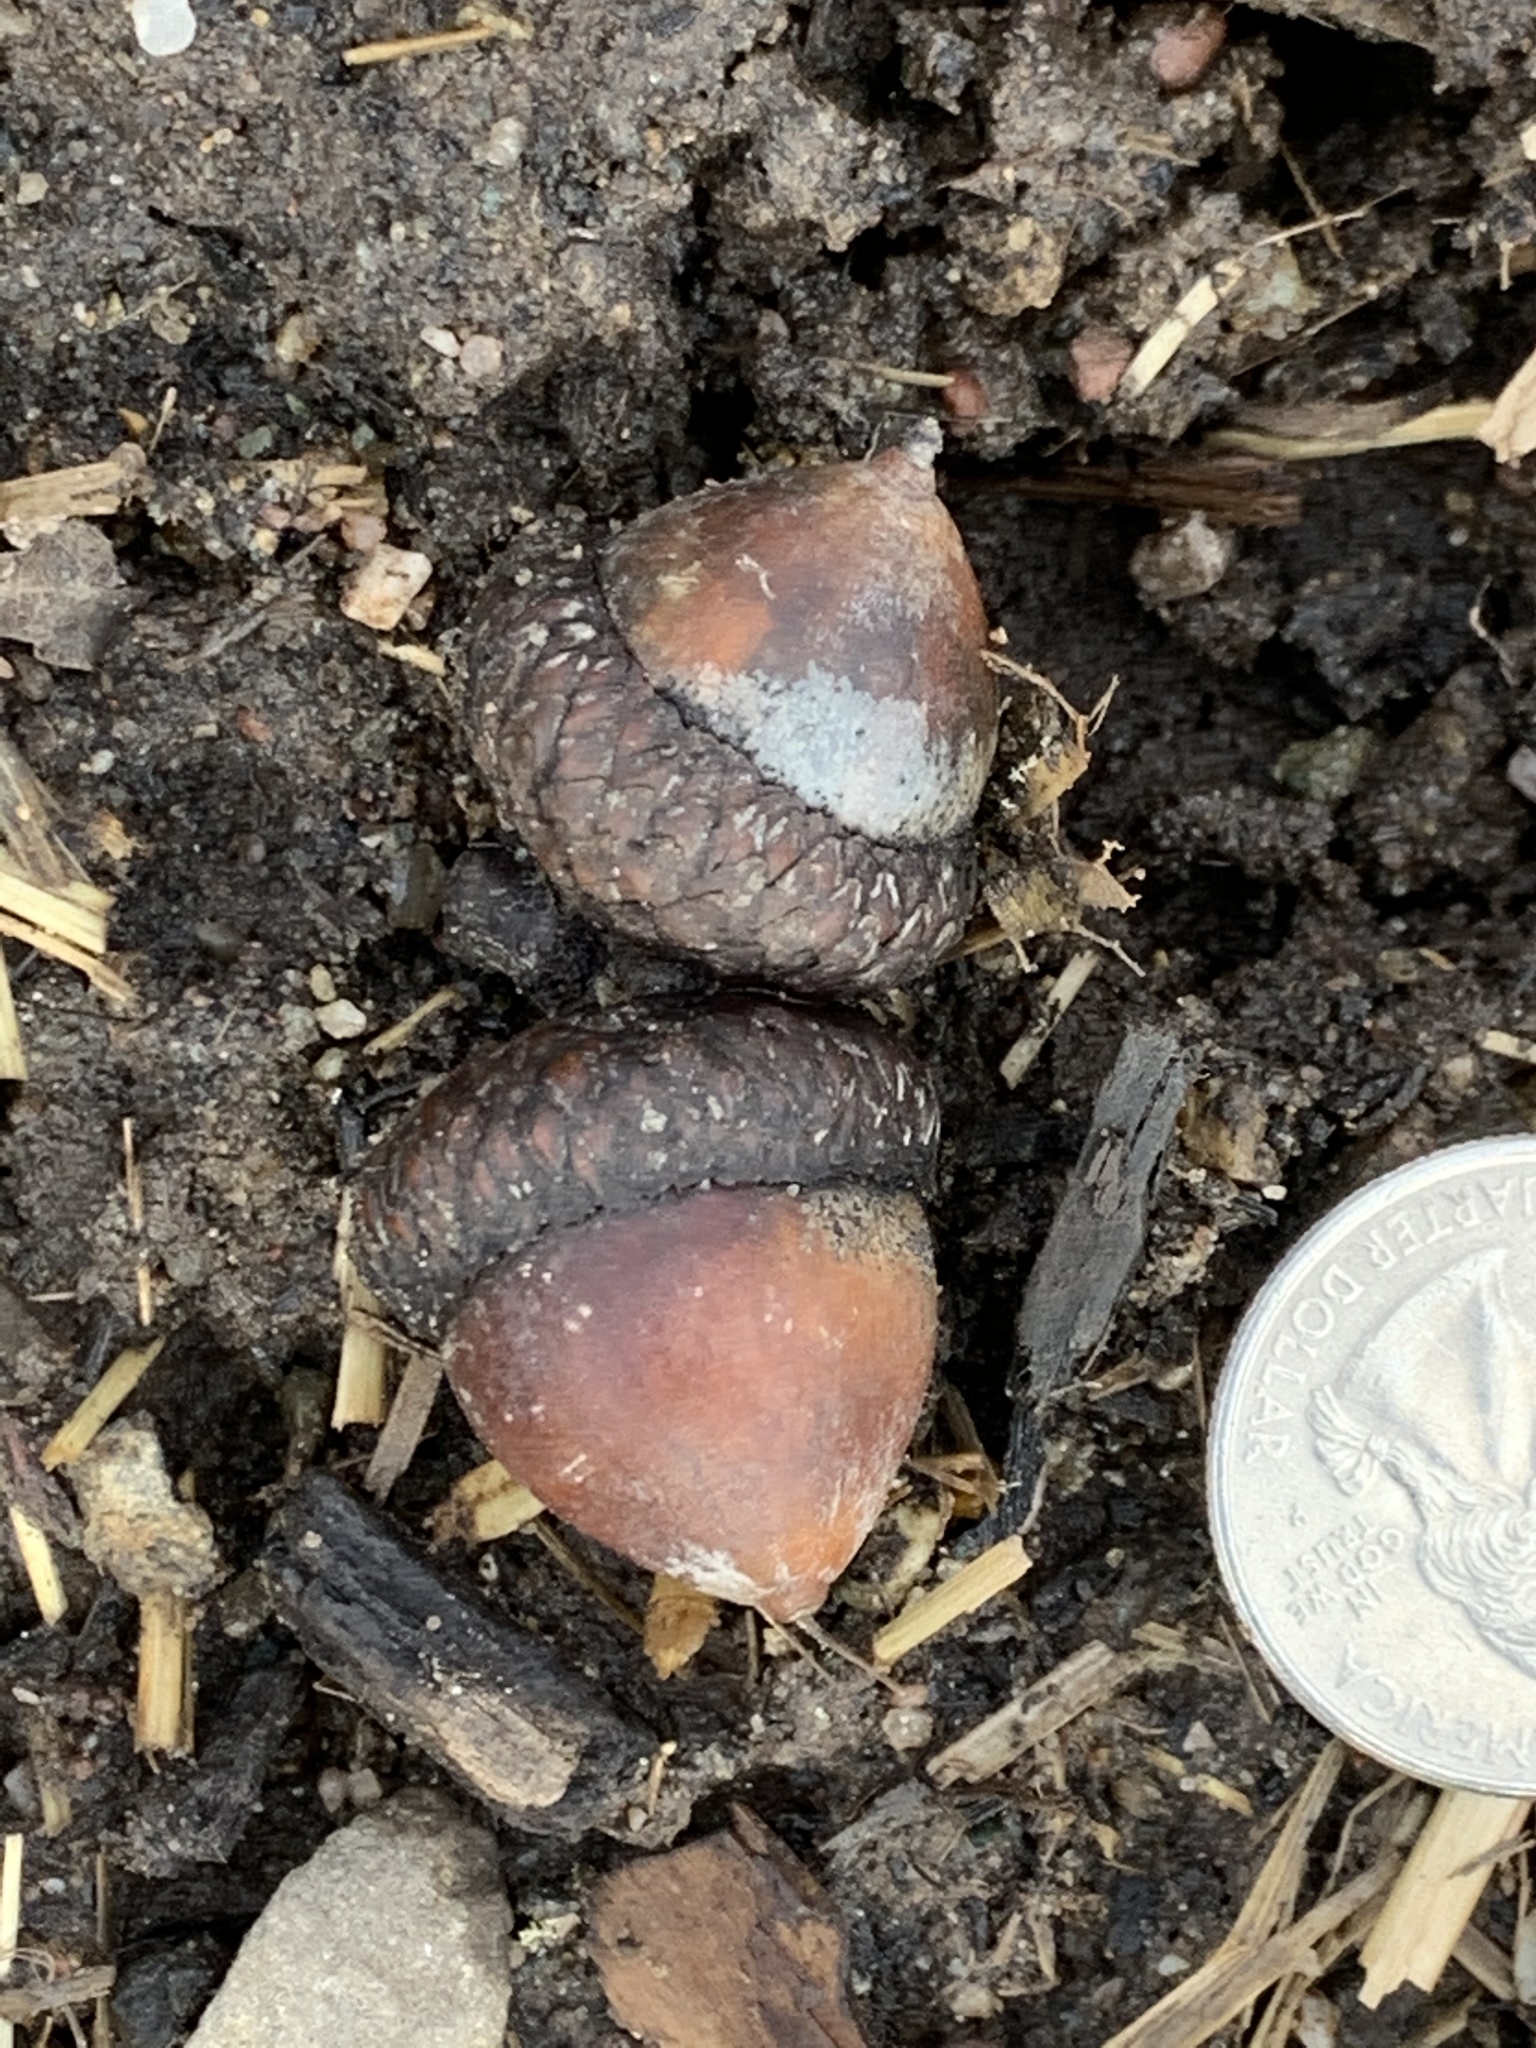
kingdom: Plantae
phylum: Tracheophyta
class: Magnoliopsida
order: Fagales
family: Fagaceae
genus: Quercus
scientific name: Quercus rubra
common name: Red oak
